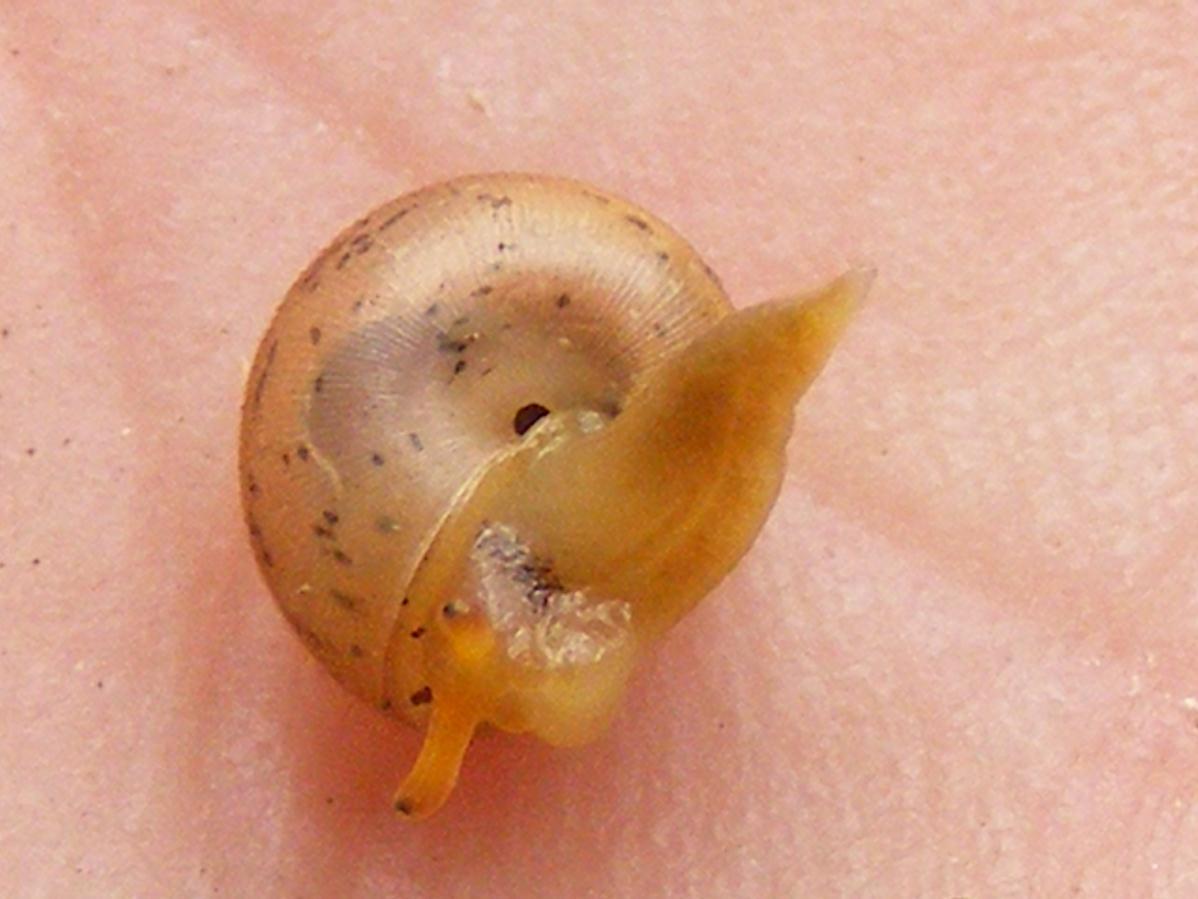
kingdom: Animalia
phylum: Mollusca
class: Gastropoda
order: Stylommatophora
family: Charopidae
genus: Chalcocystis
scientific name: Chalcocystis burnupi
